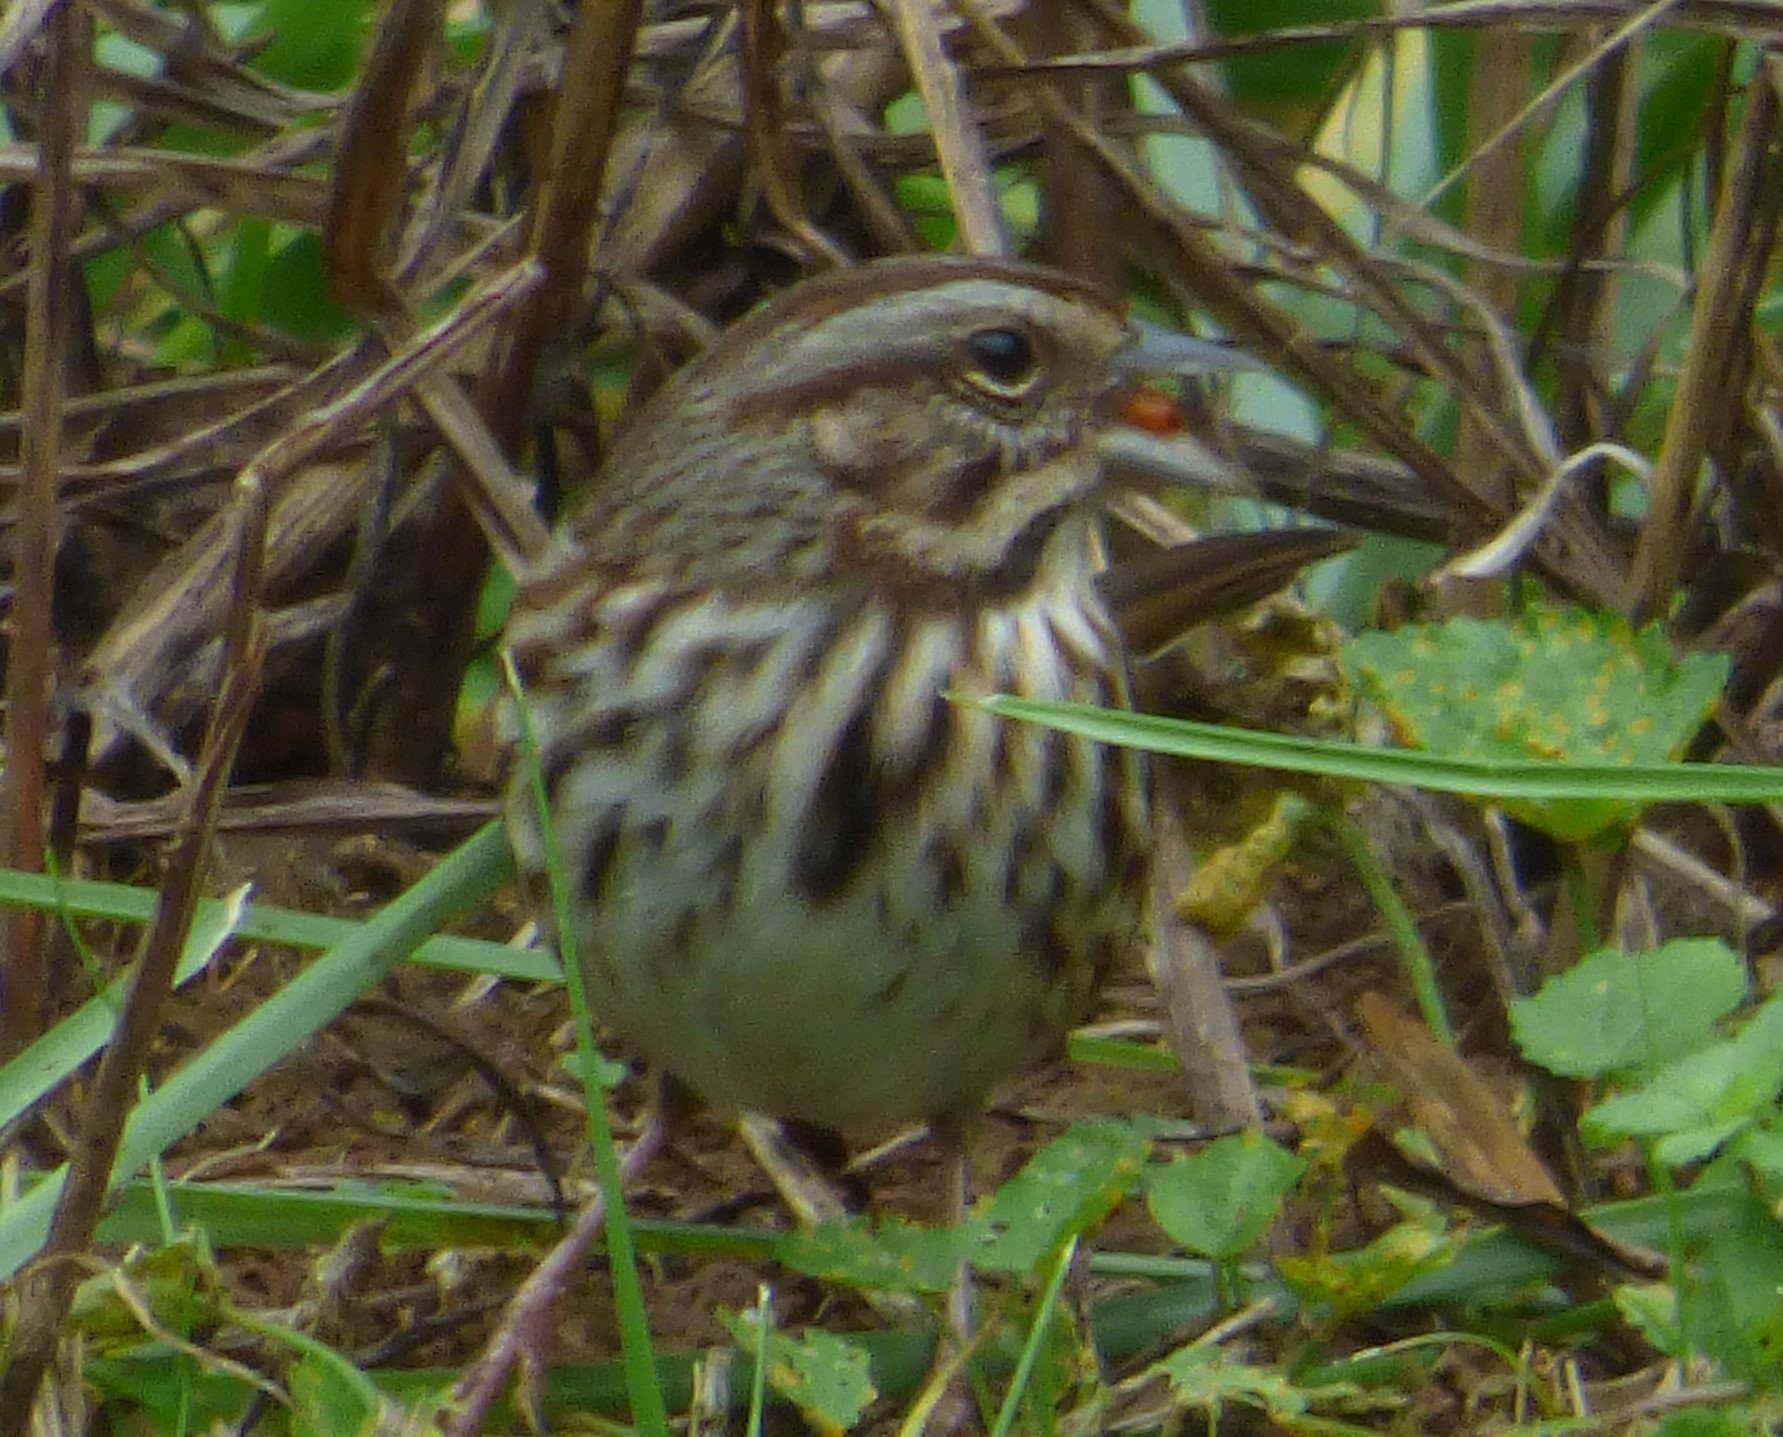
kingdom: Animalia
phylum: Chordata
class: Aves
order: Passeriformes
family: Passerellidae
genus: Melospiza
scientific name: Melospiza melodia
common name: Song sparrow
